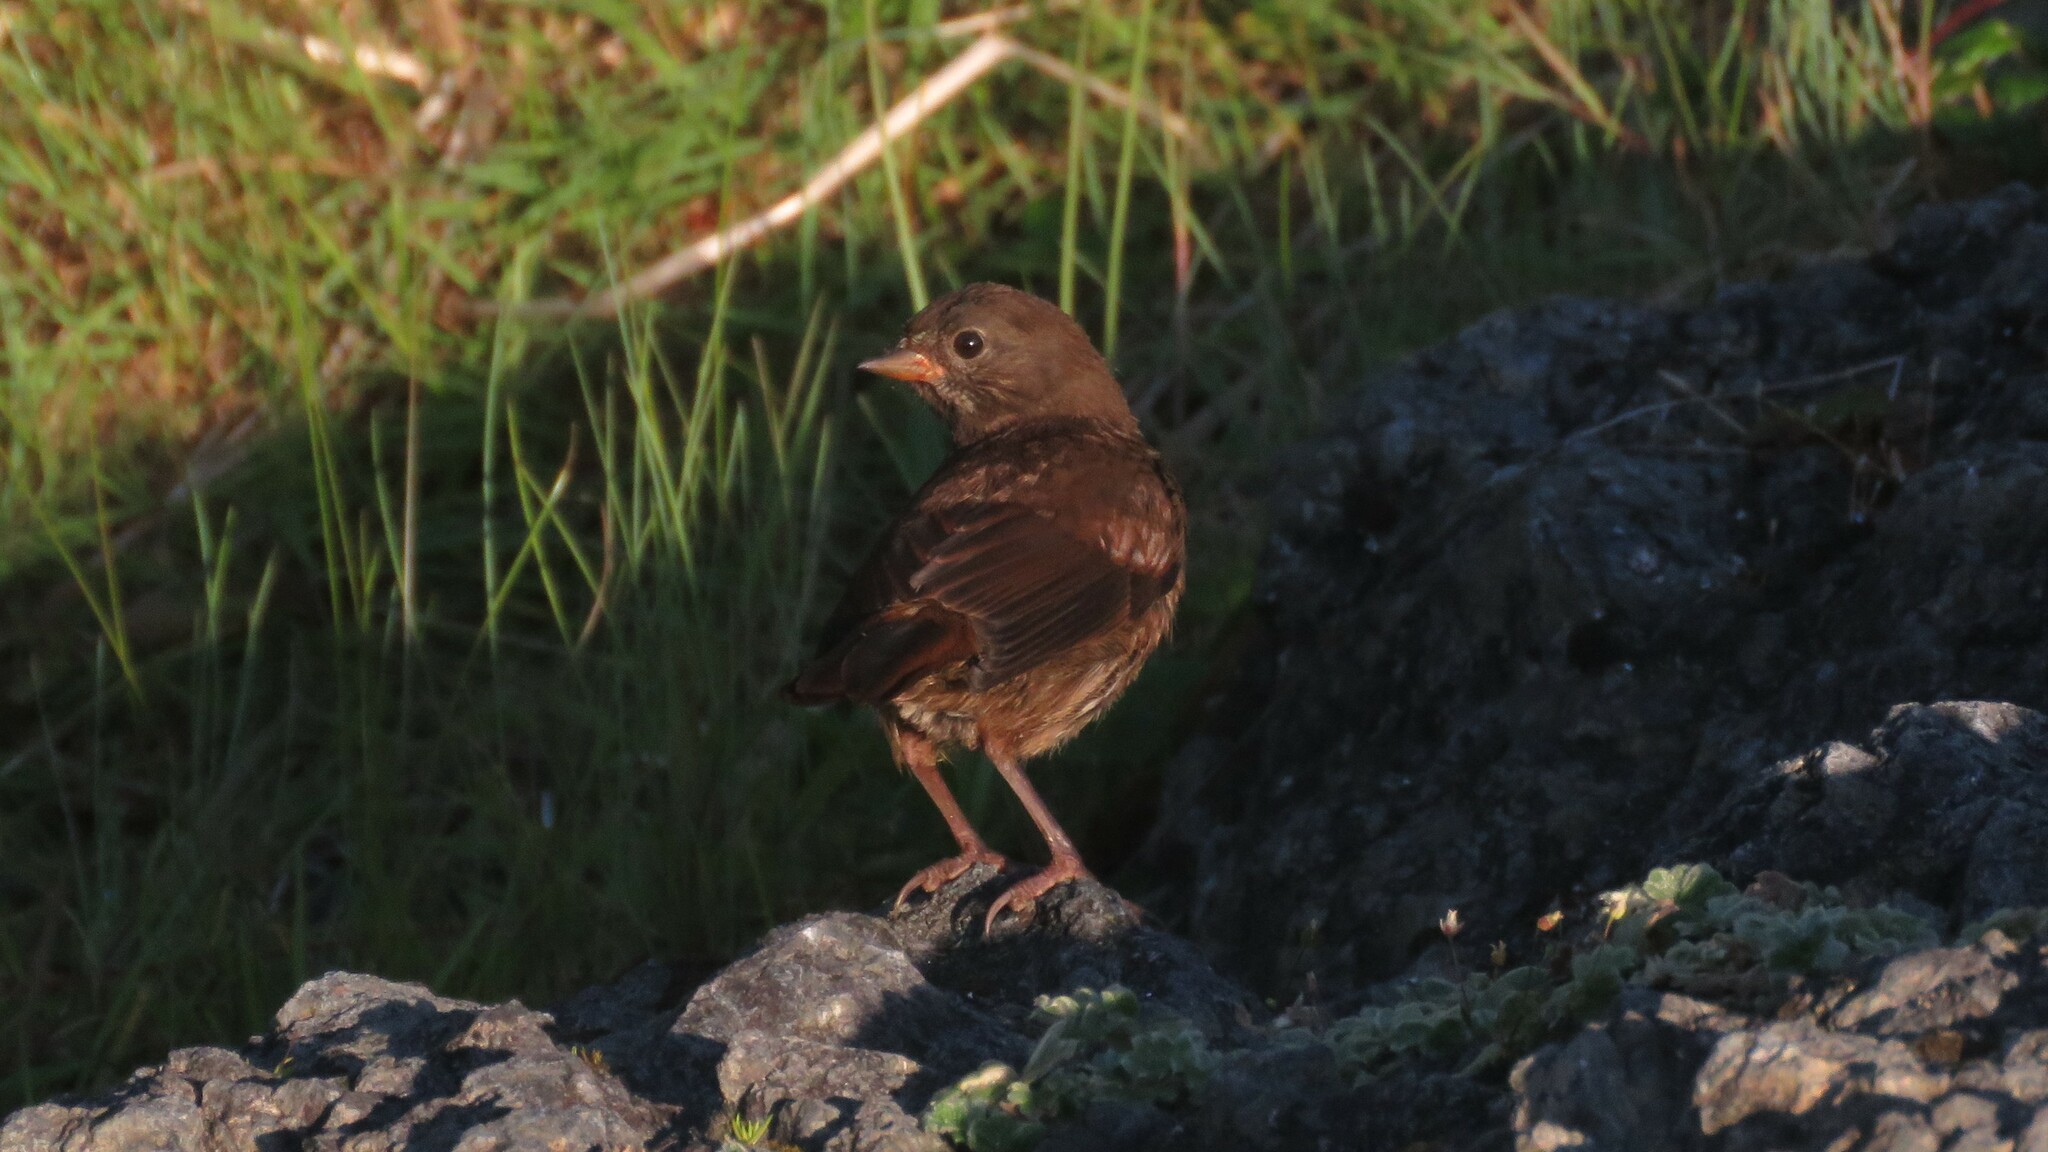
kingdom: Animalia
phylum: Chordata
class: Aves
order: Passeriformes
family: Passerellidae
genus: Passerella
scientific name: Passerella iliaca
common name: Fox sparrow
